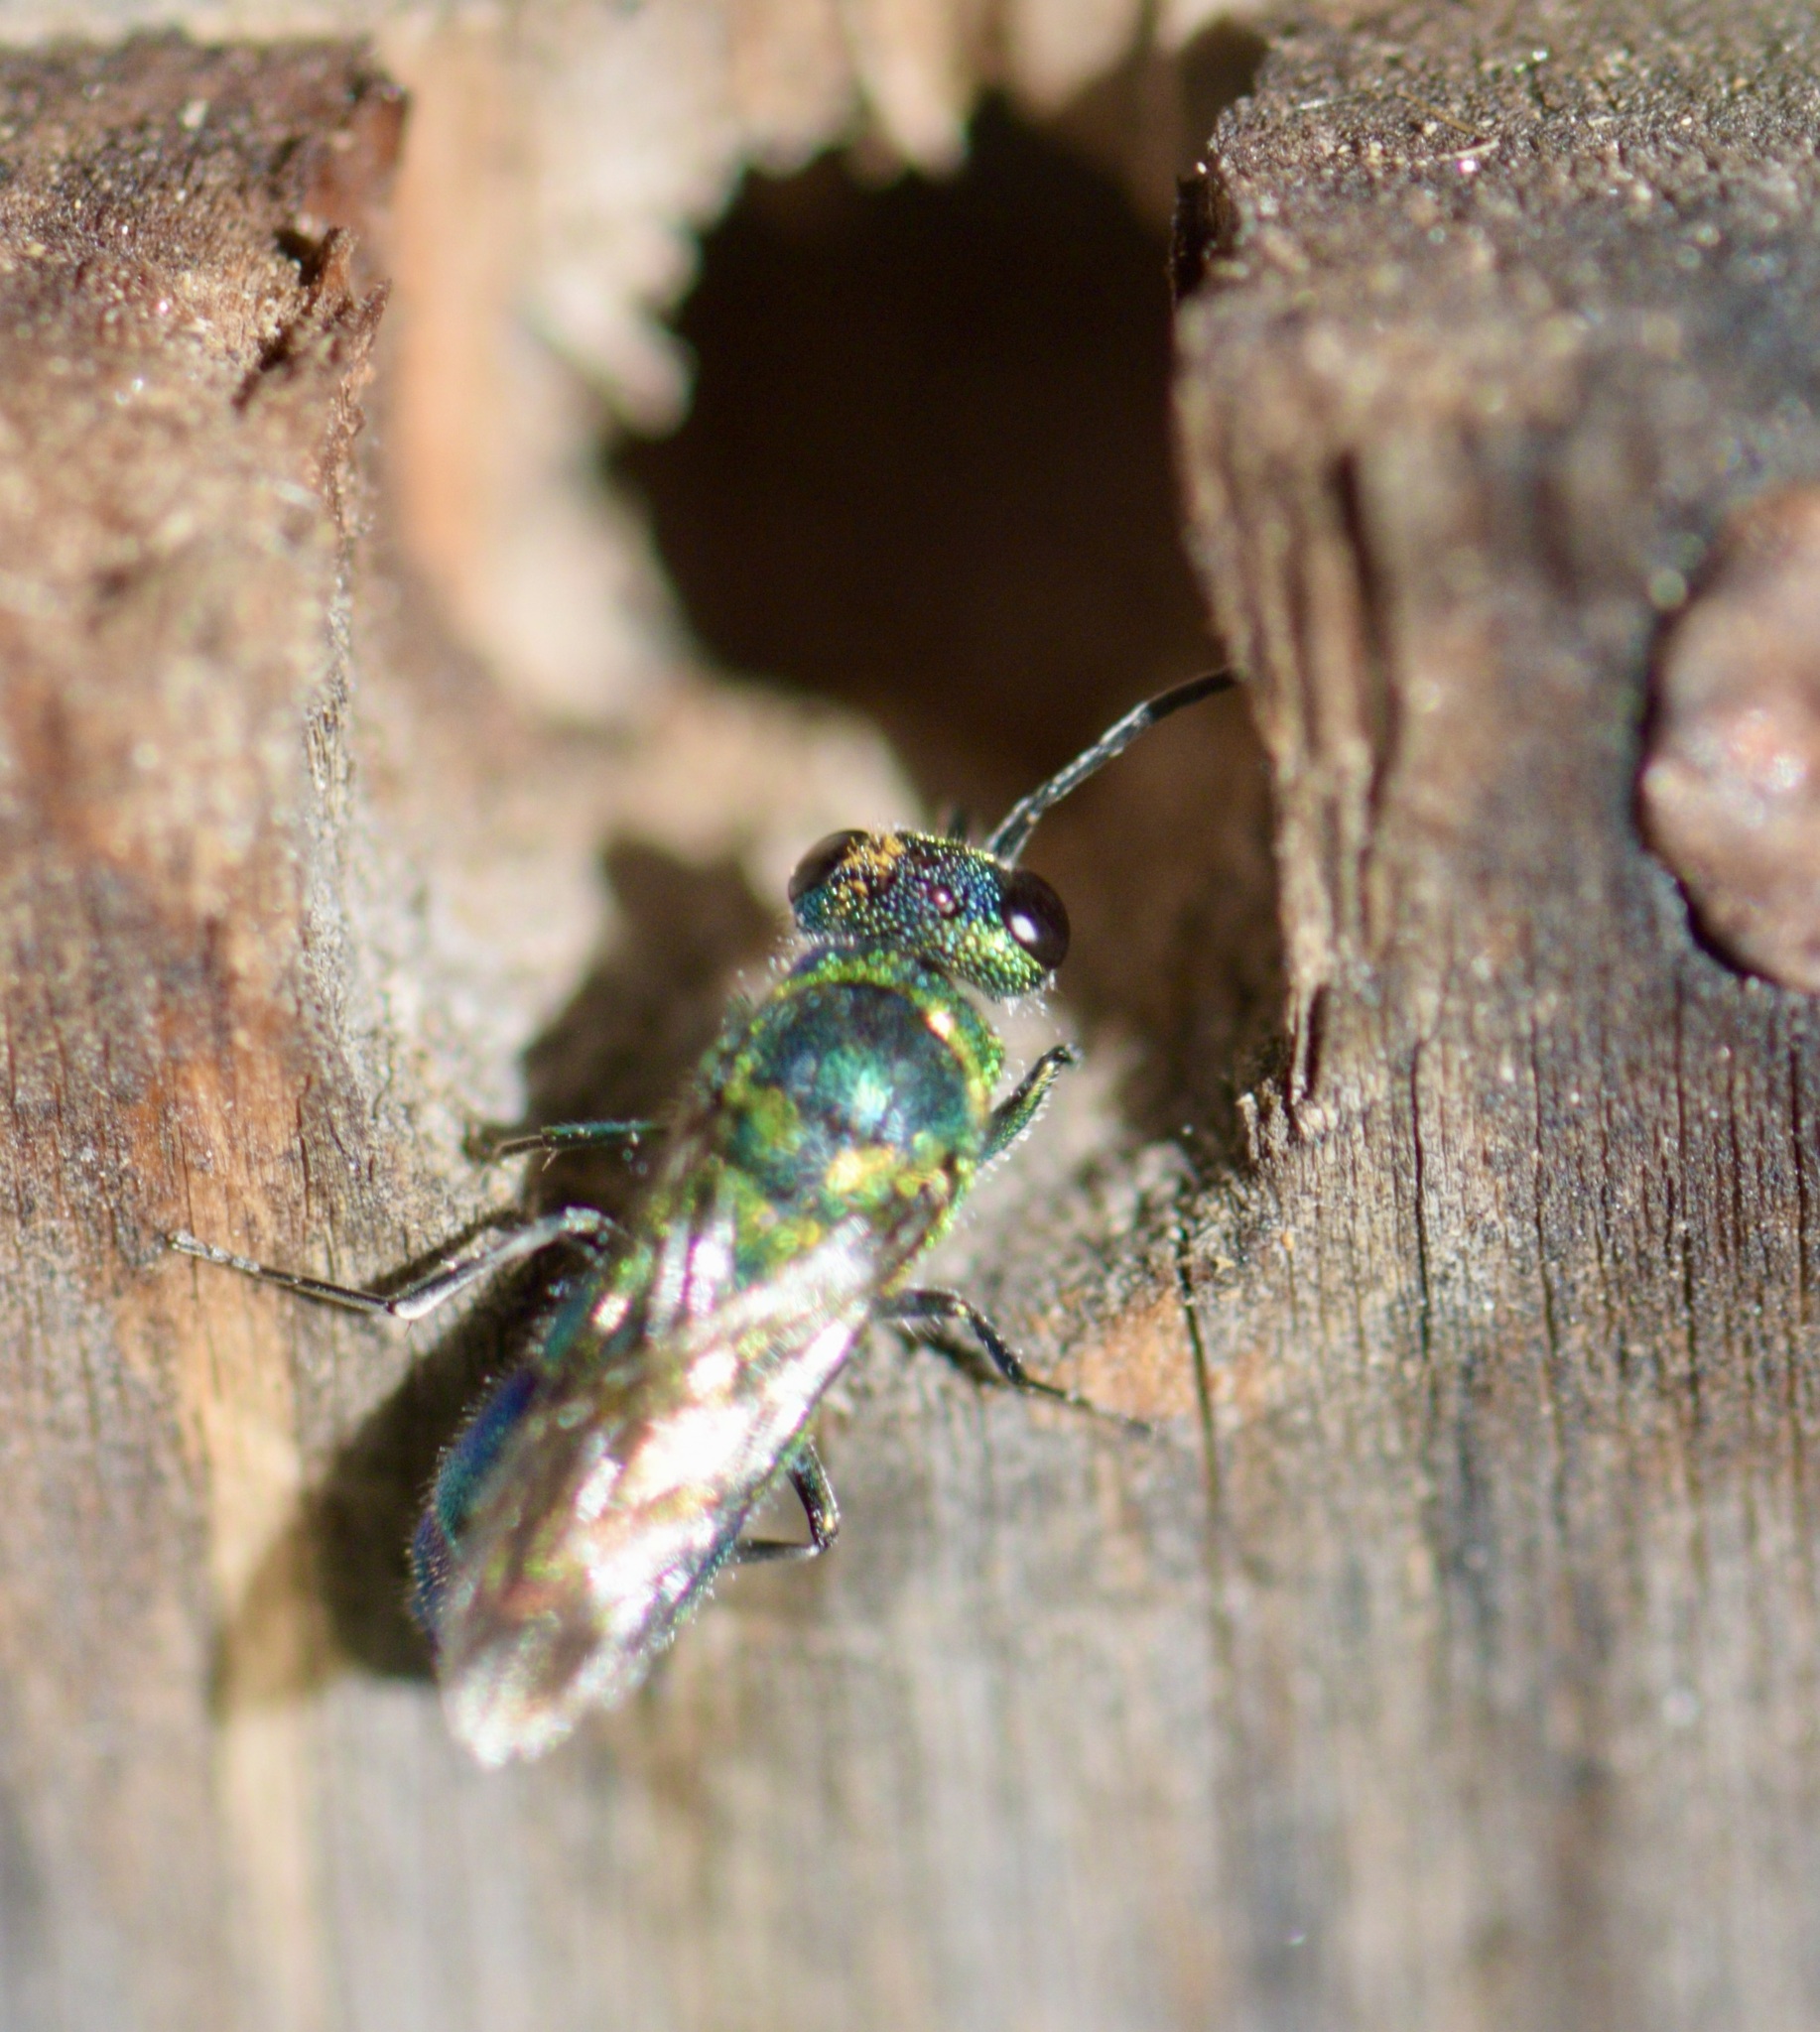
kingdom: Animalia
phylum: Arthropoda
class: Insecta
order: Hymenoptera
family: Chrysididae
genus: Chrysis
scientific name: Chrysis
